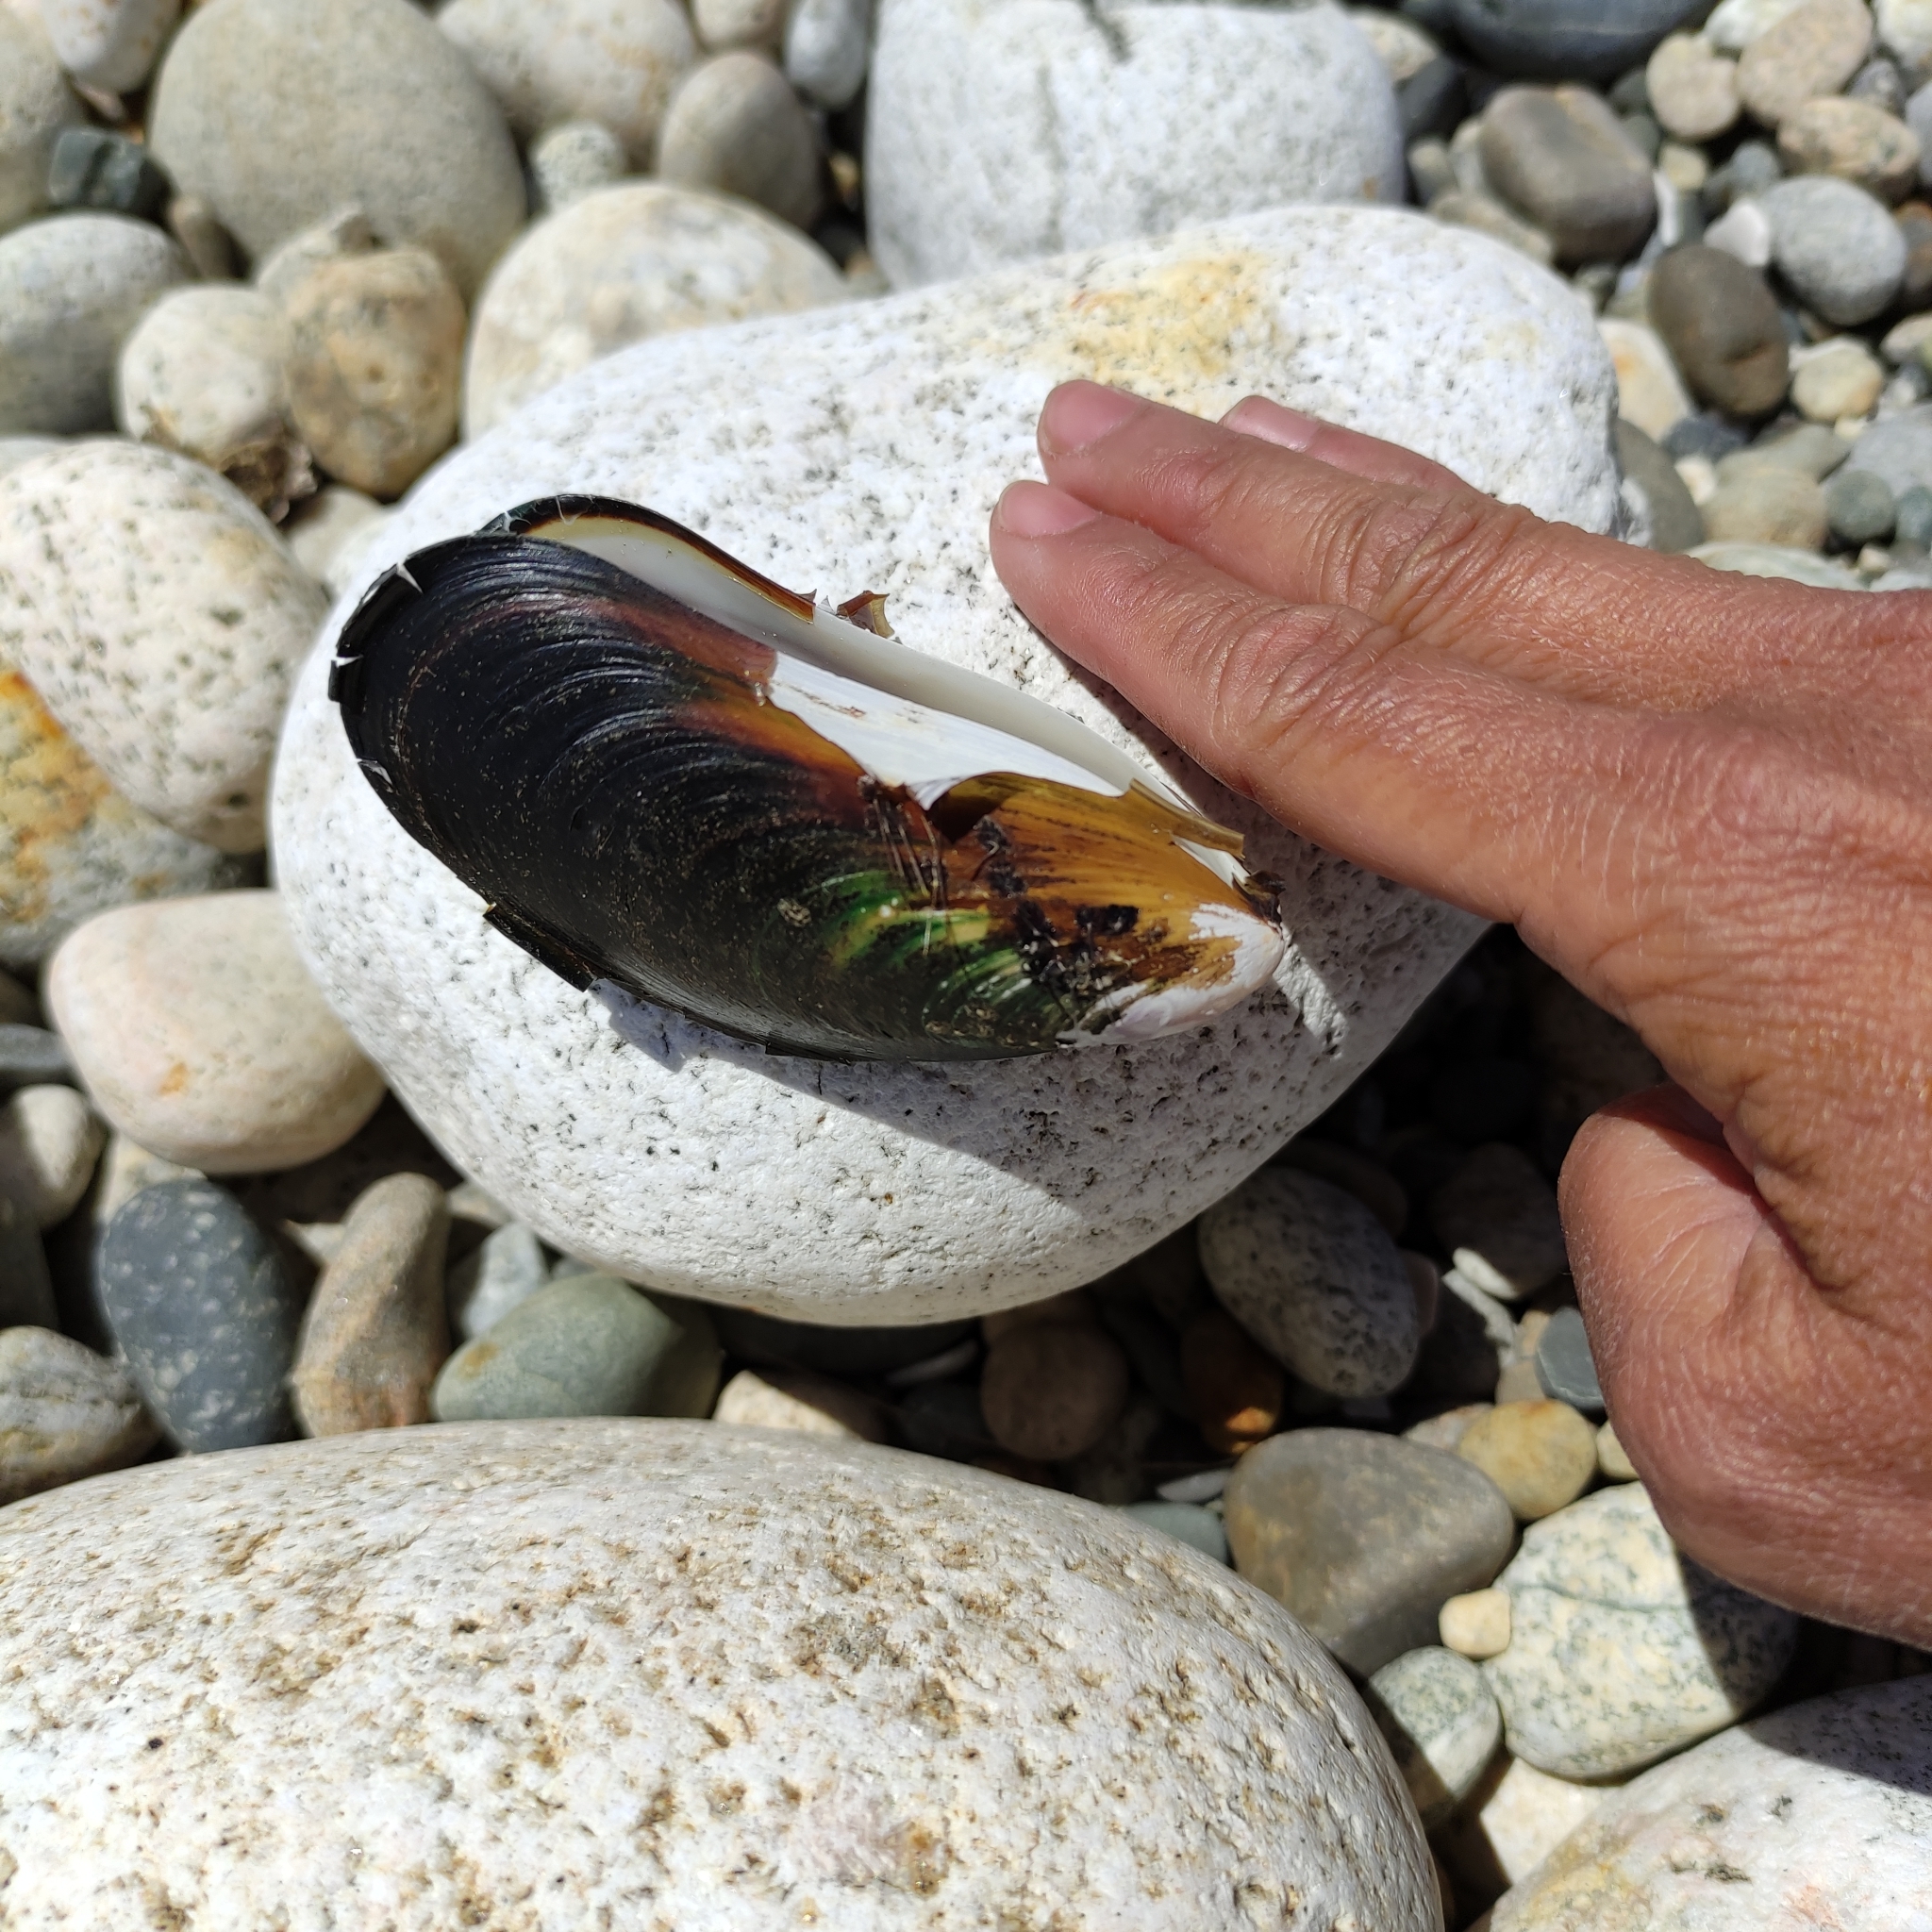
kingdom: Animalia
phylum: Mollusca
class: Bivalvia
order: Mytilida
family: Mytilidae
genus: Perna
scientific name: Perna canaliculus
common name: New zealand greenshelltm
